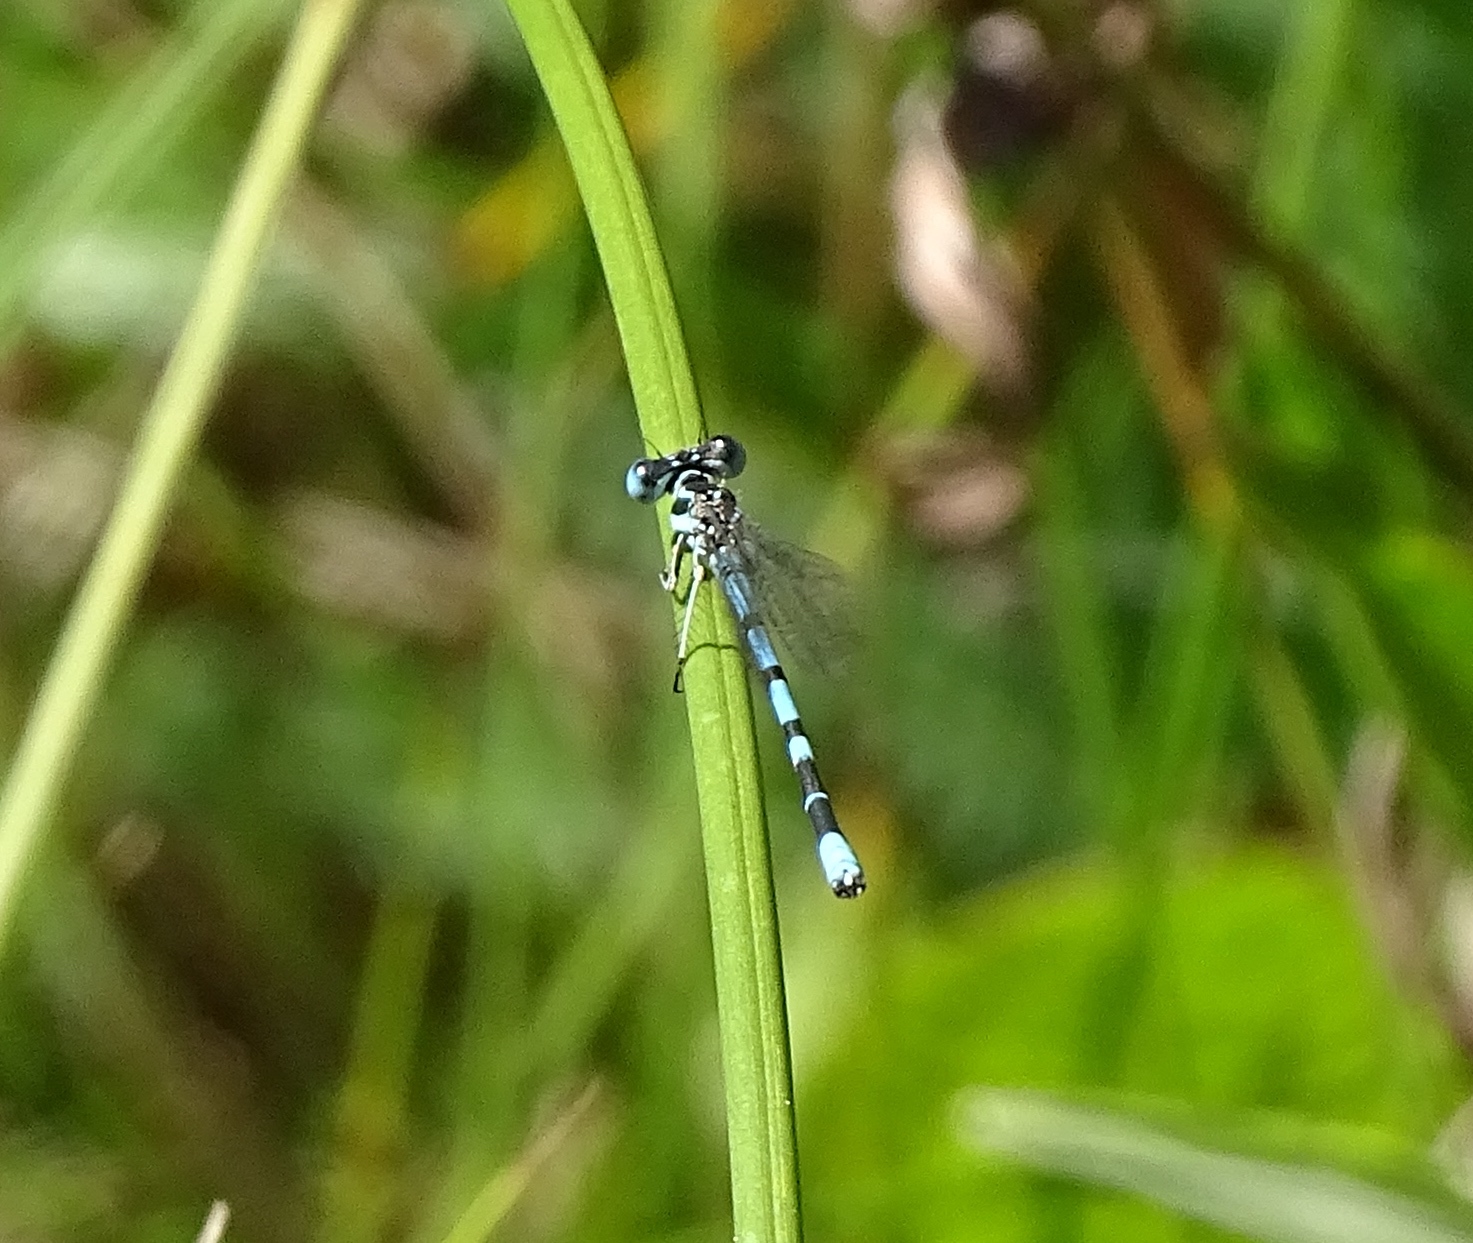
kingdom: Animalia
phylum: Arthropoda
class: Insecta
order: Odonata
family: Coenagrionidae
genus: Argia
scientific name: Argia bipunctulata
